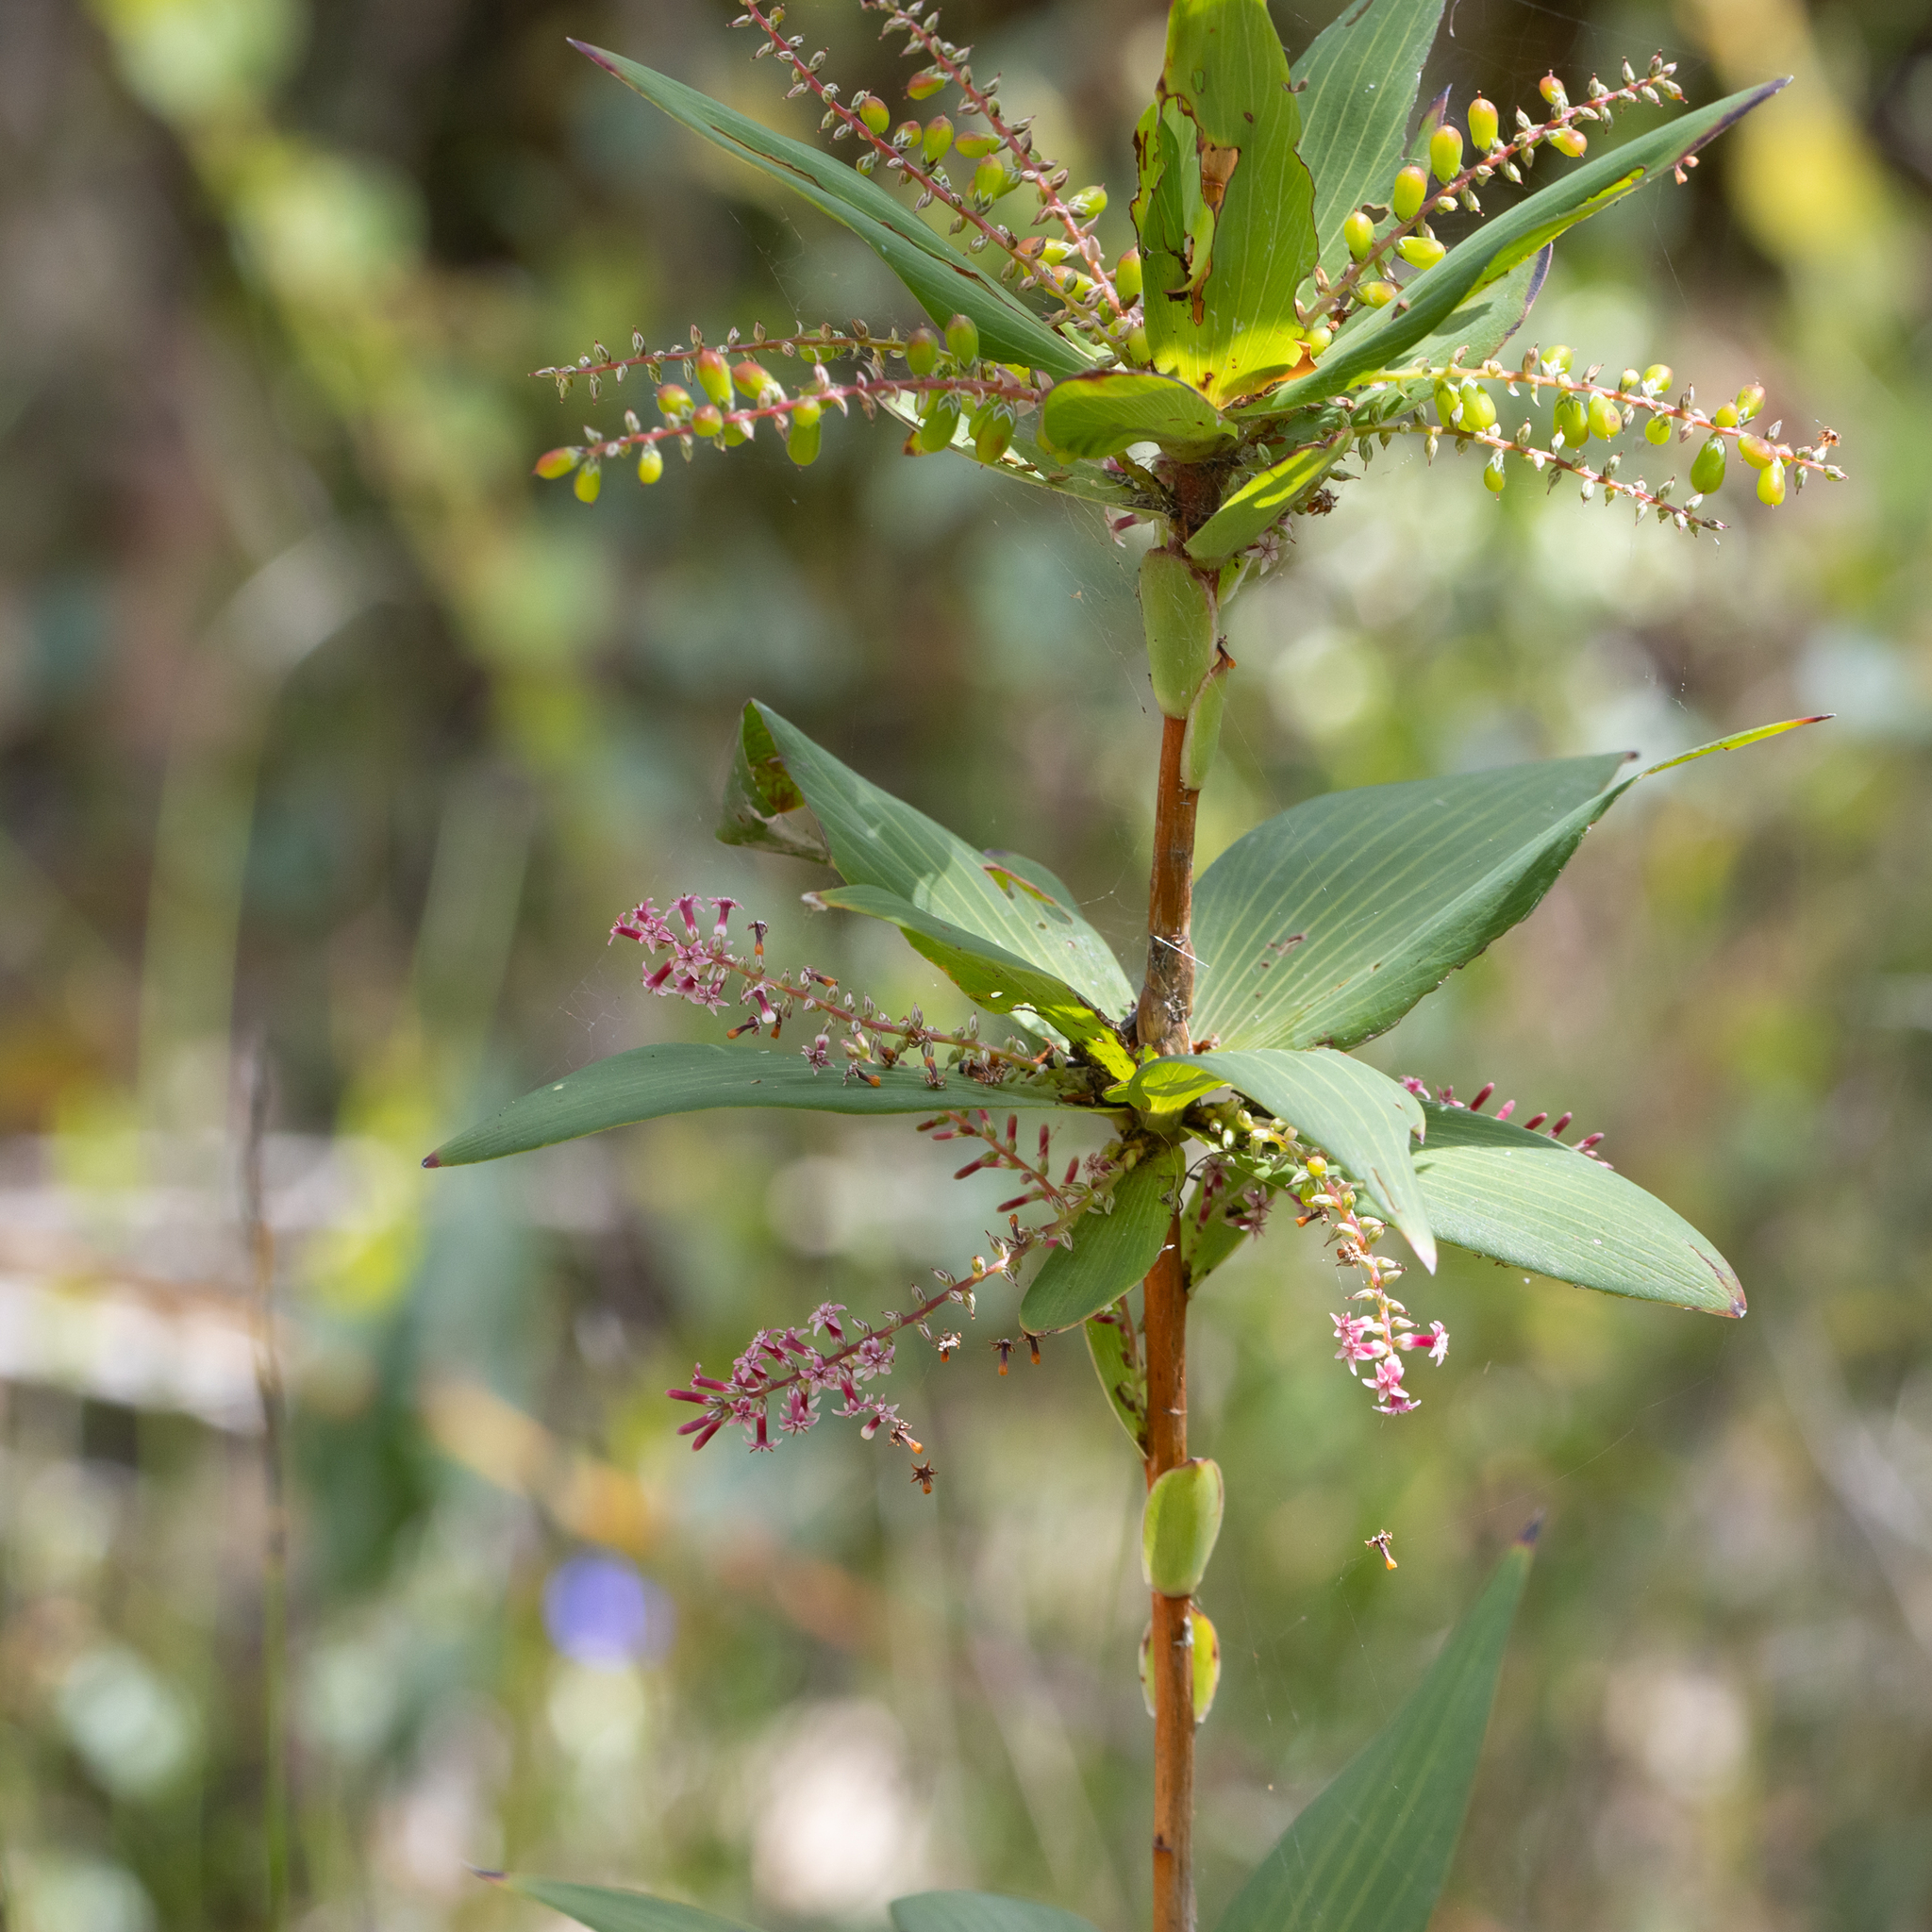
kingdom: Plantae
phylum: Tracheophyta
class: Magnoliopsida
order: Ericales
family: Ericaceae
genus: Leucopogon
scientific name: Leucopogon verticillatus
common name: Tasselshrub
